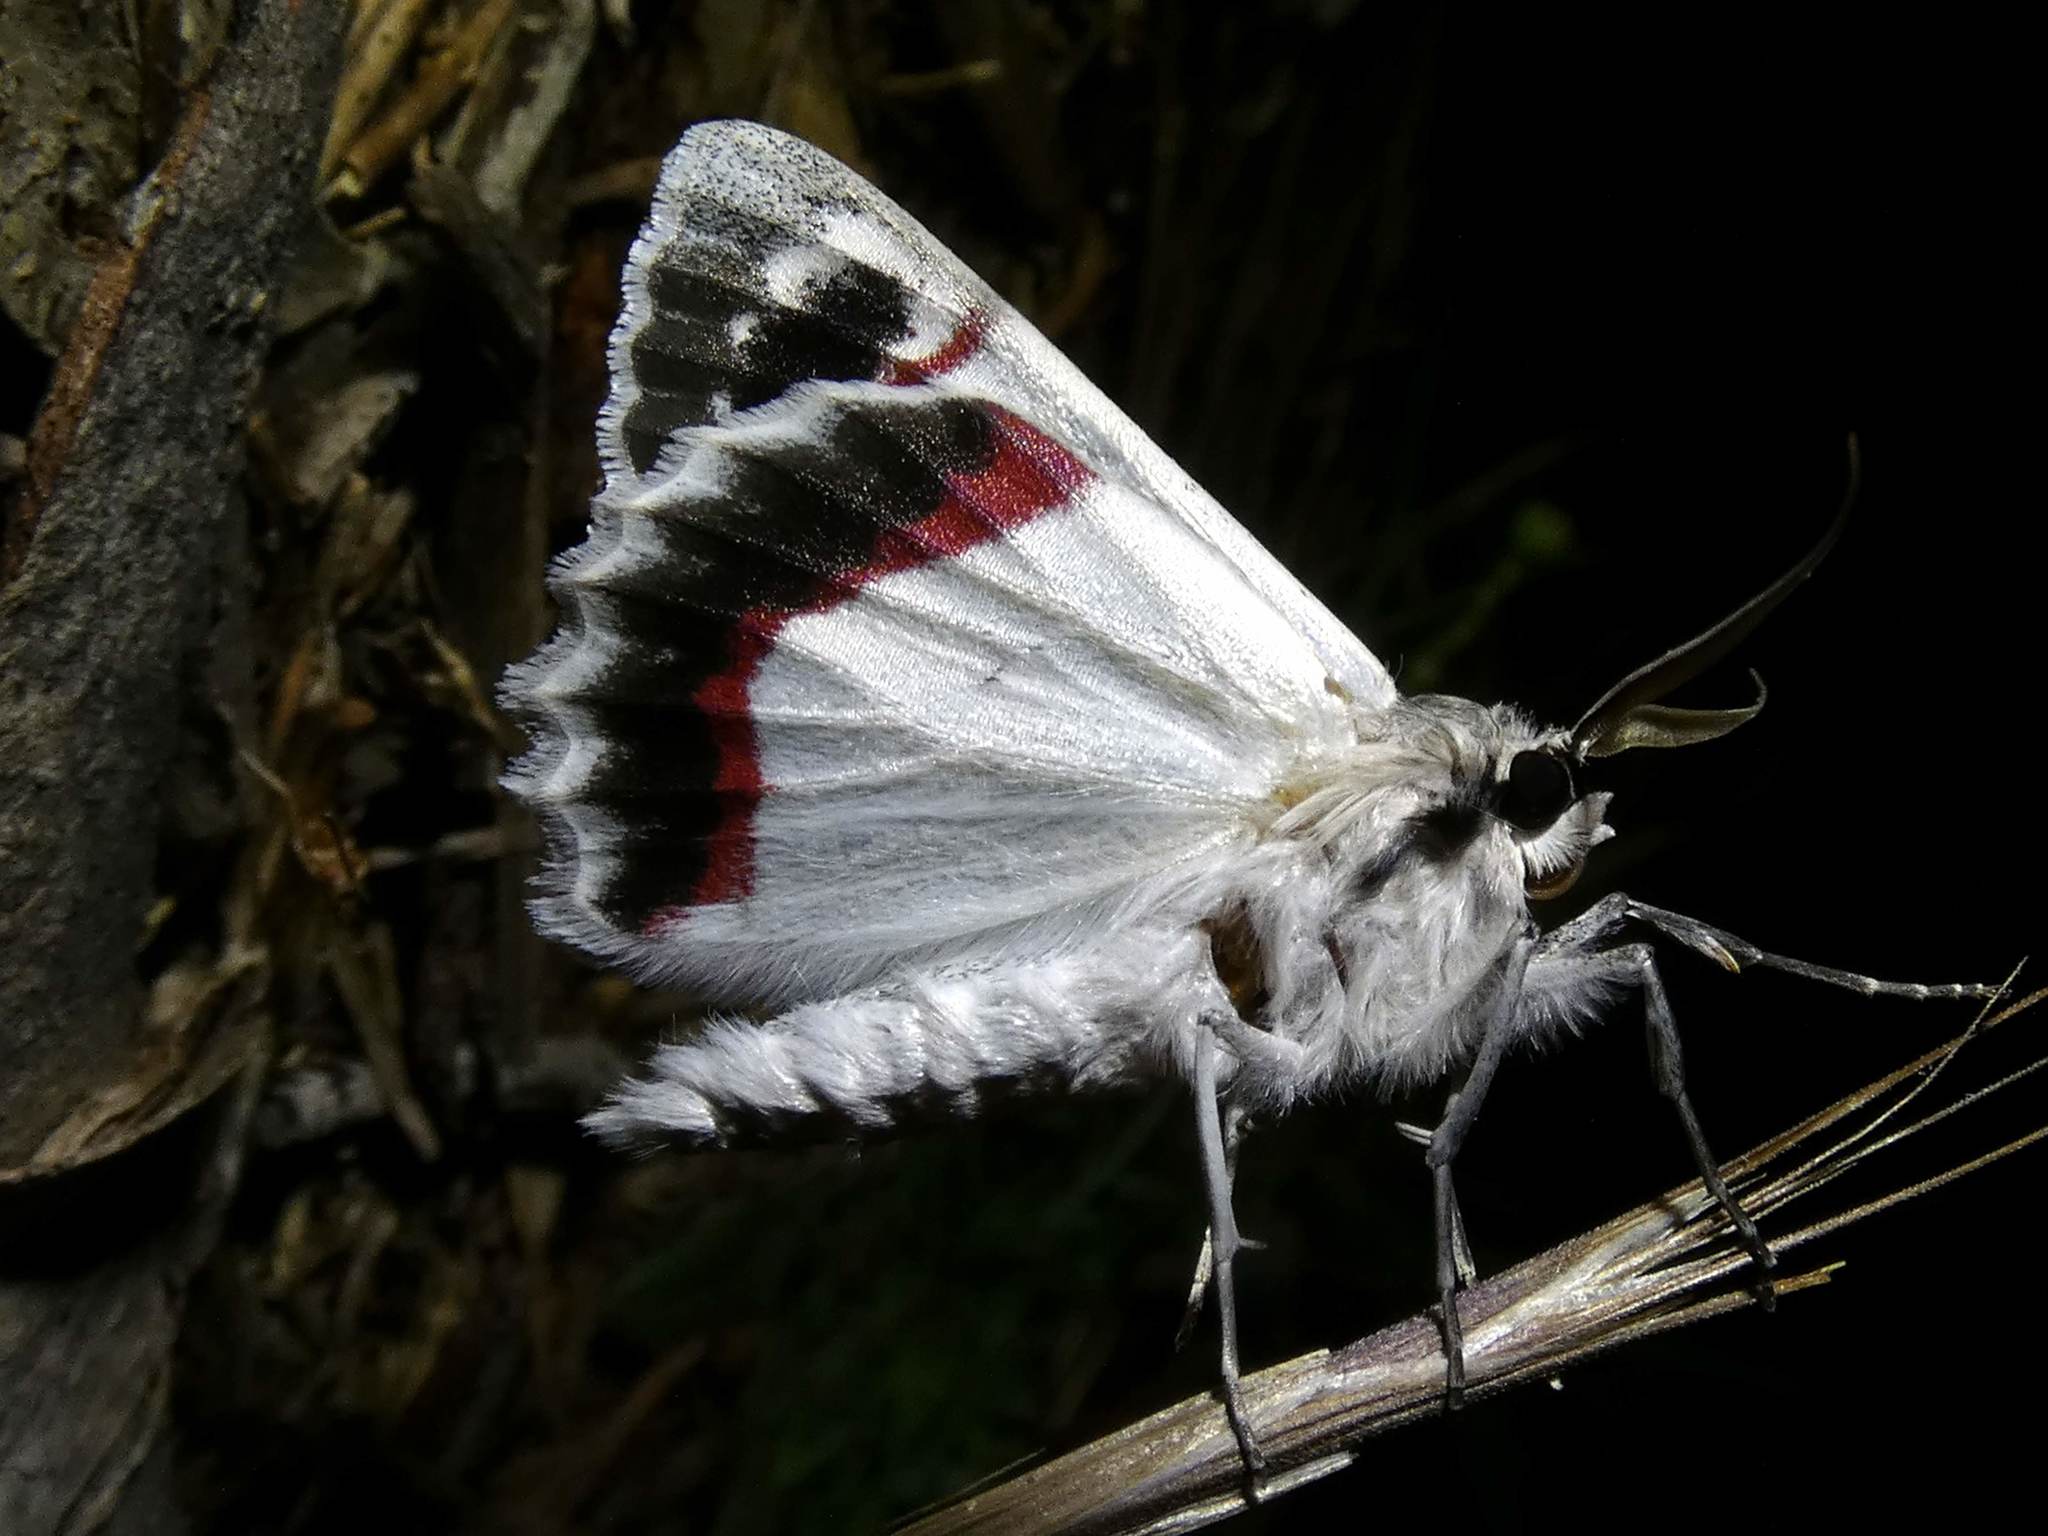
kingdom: Animalia
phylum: Arthropoda
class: Insecta
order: Lepidoptera
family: Geometridae
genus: Crypsiphona
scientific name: Crypsiphona ocultaria
